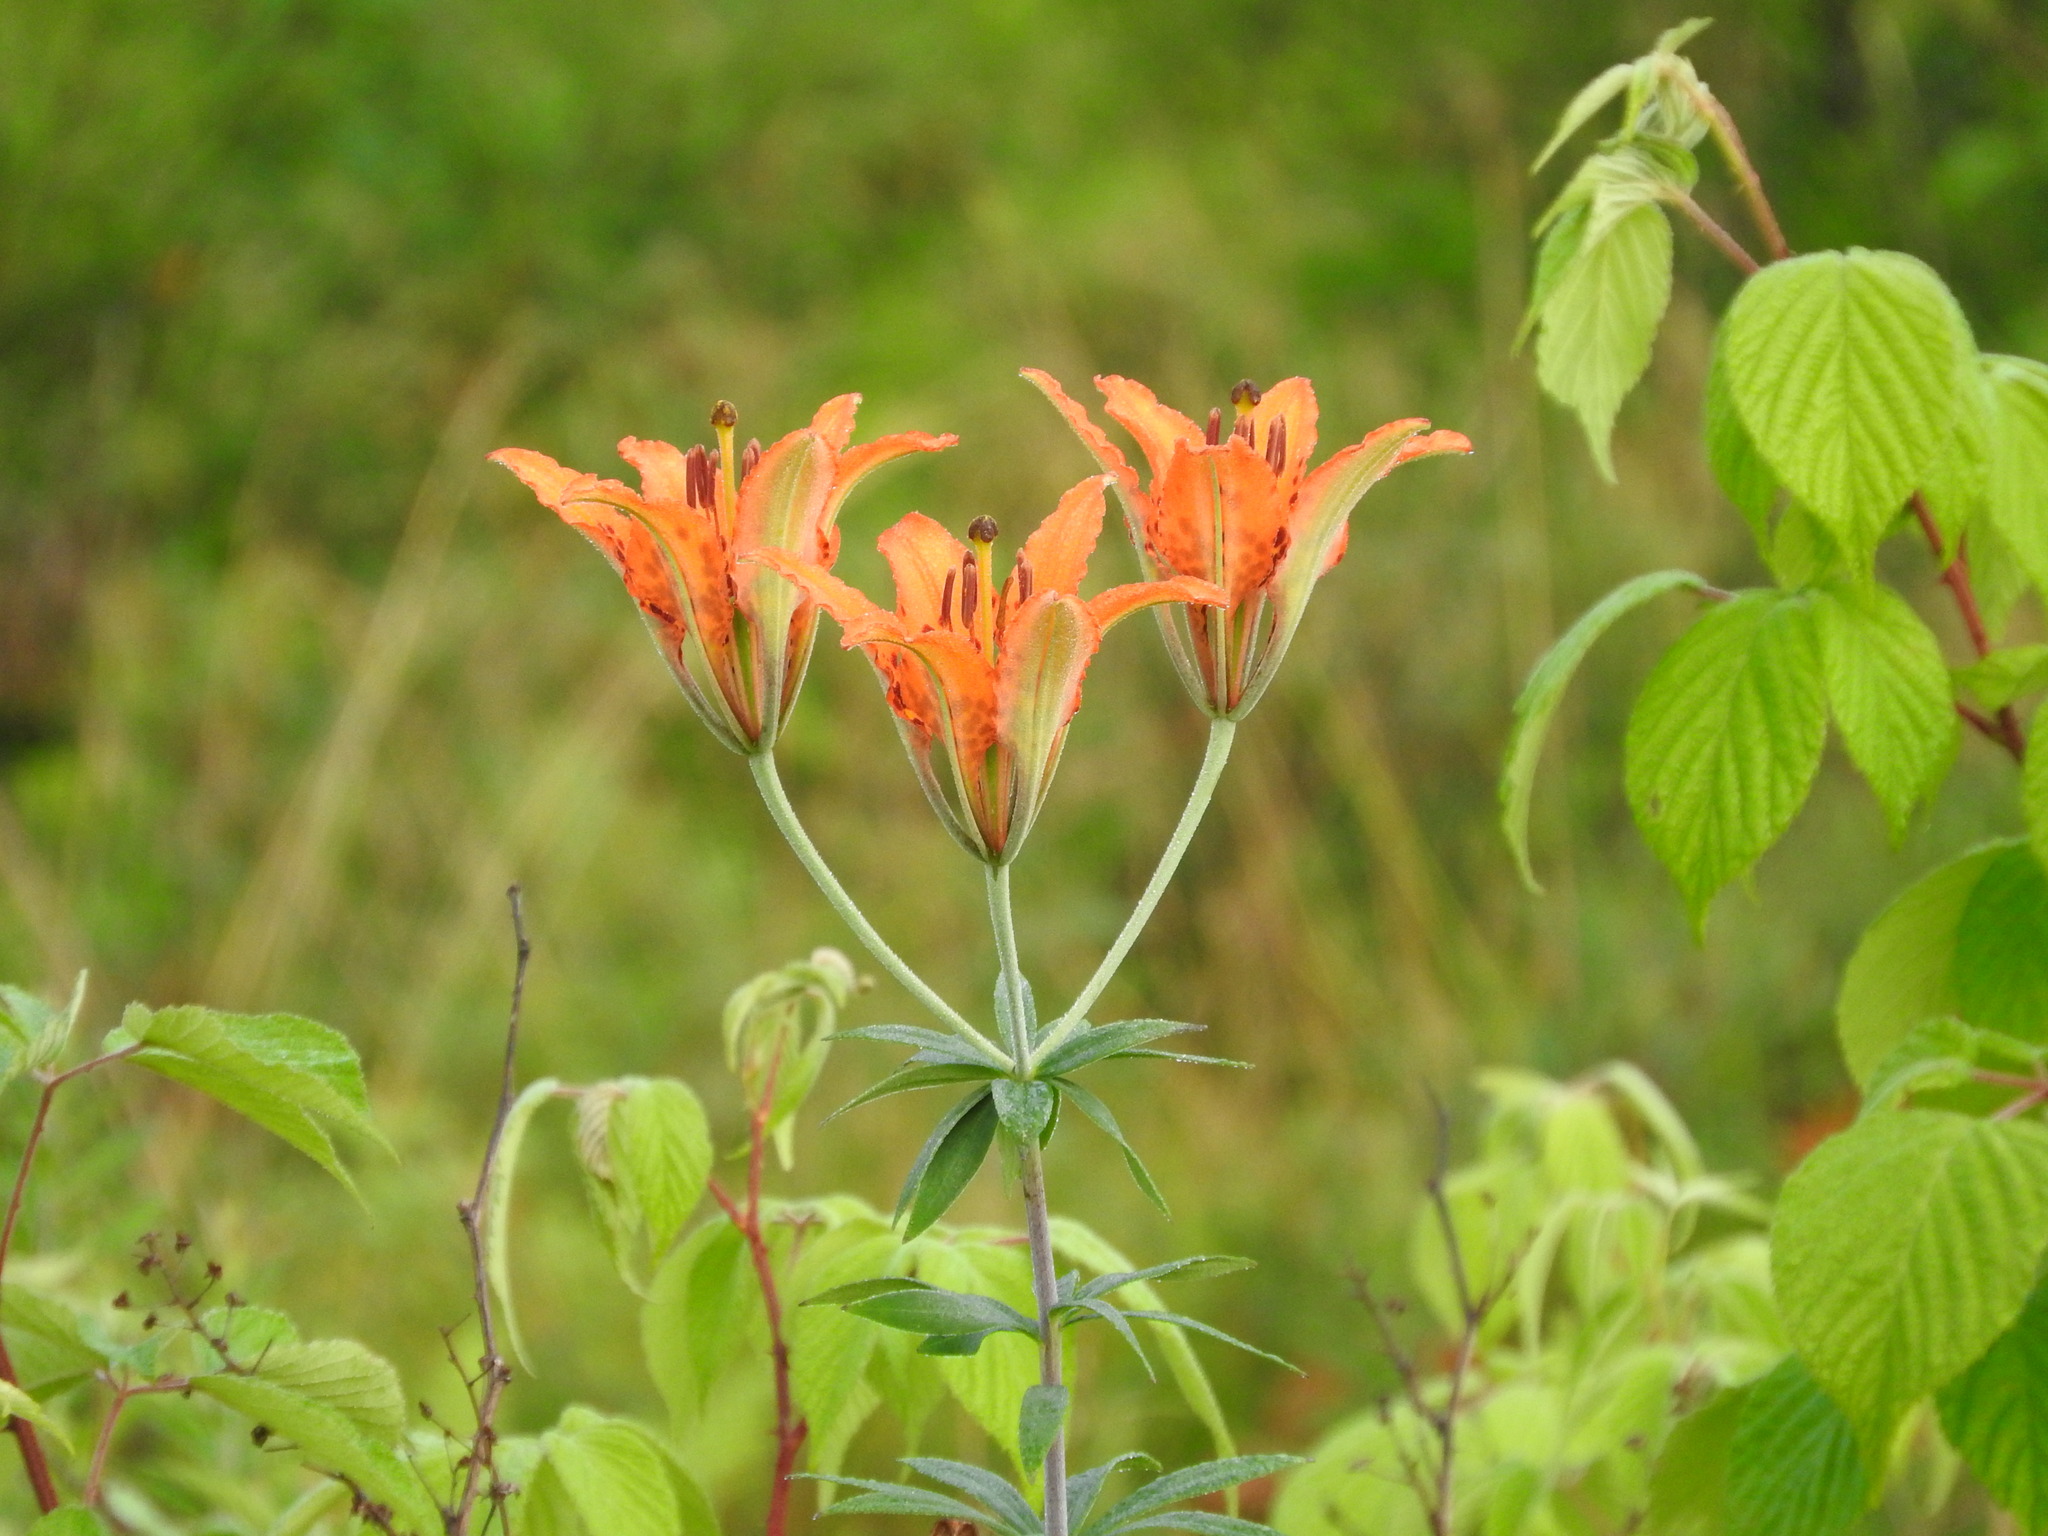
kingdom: Plantae
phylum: Tracheophyta
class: Liliopsida
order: Liliales
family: Liliaceae
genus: Lilium
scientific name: Lilium philadelphicum
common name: Red lily
